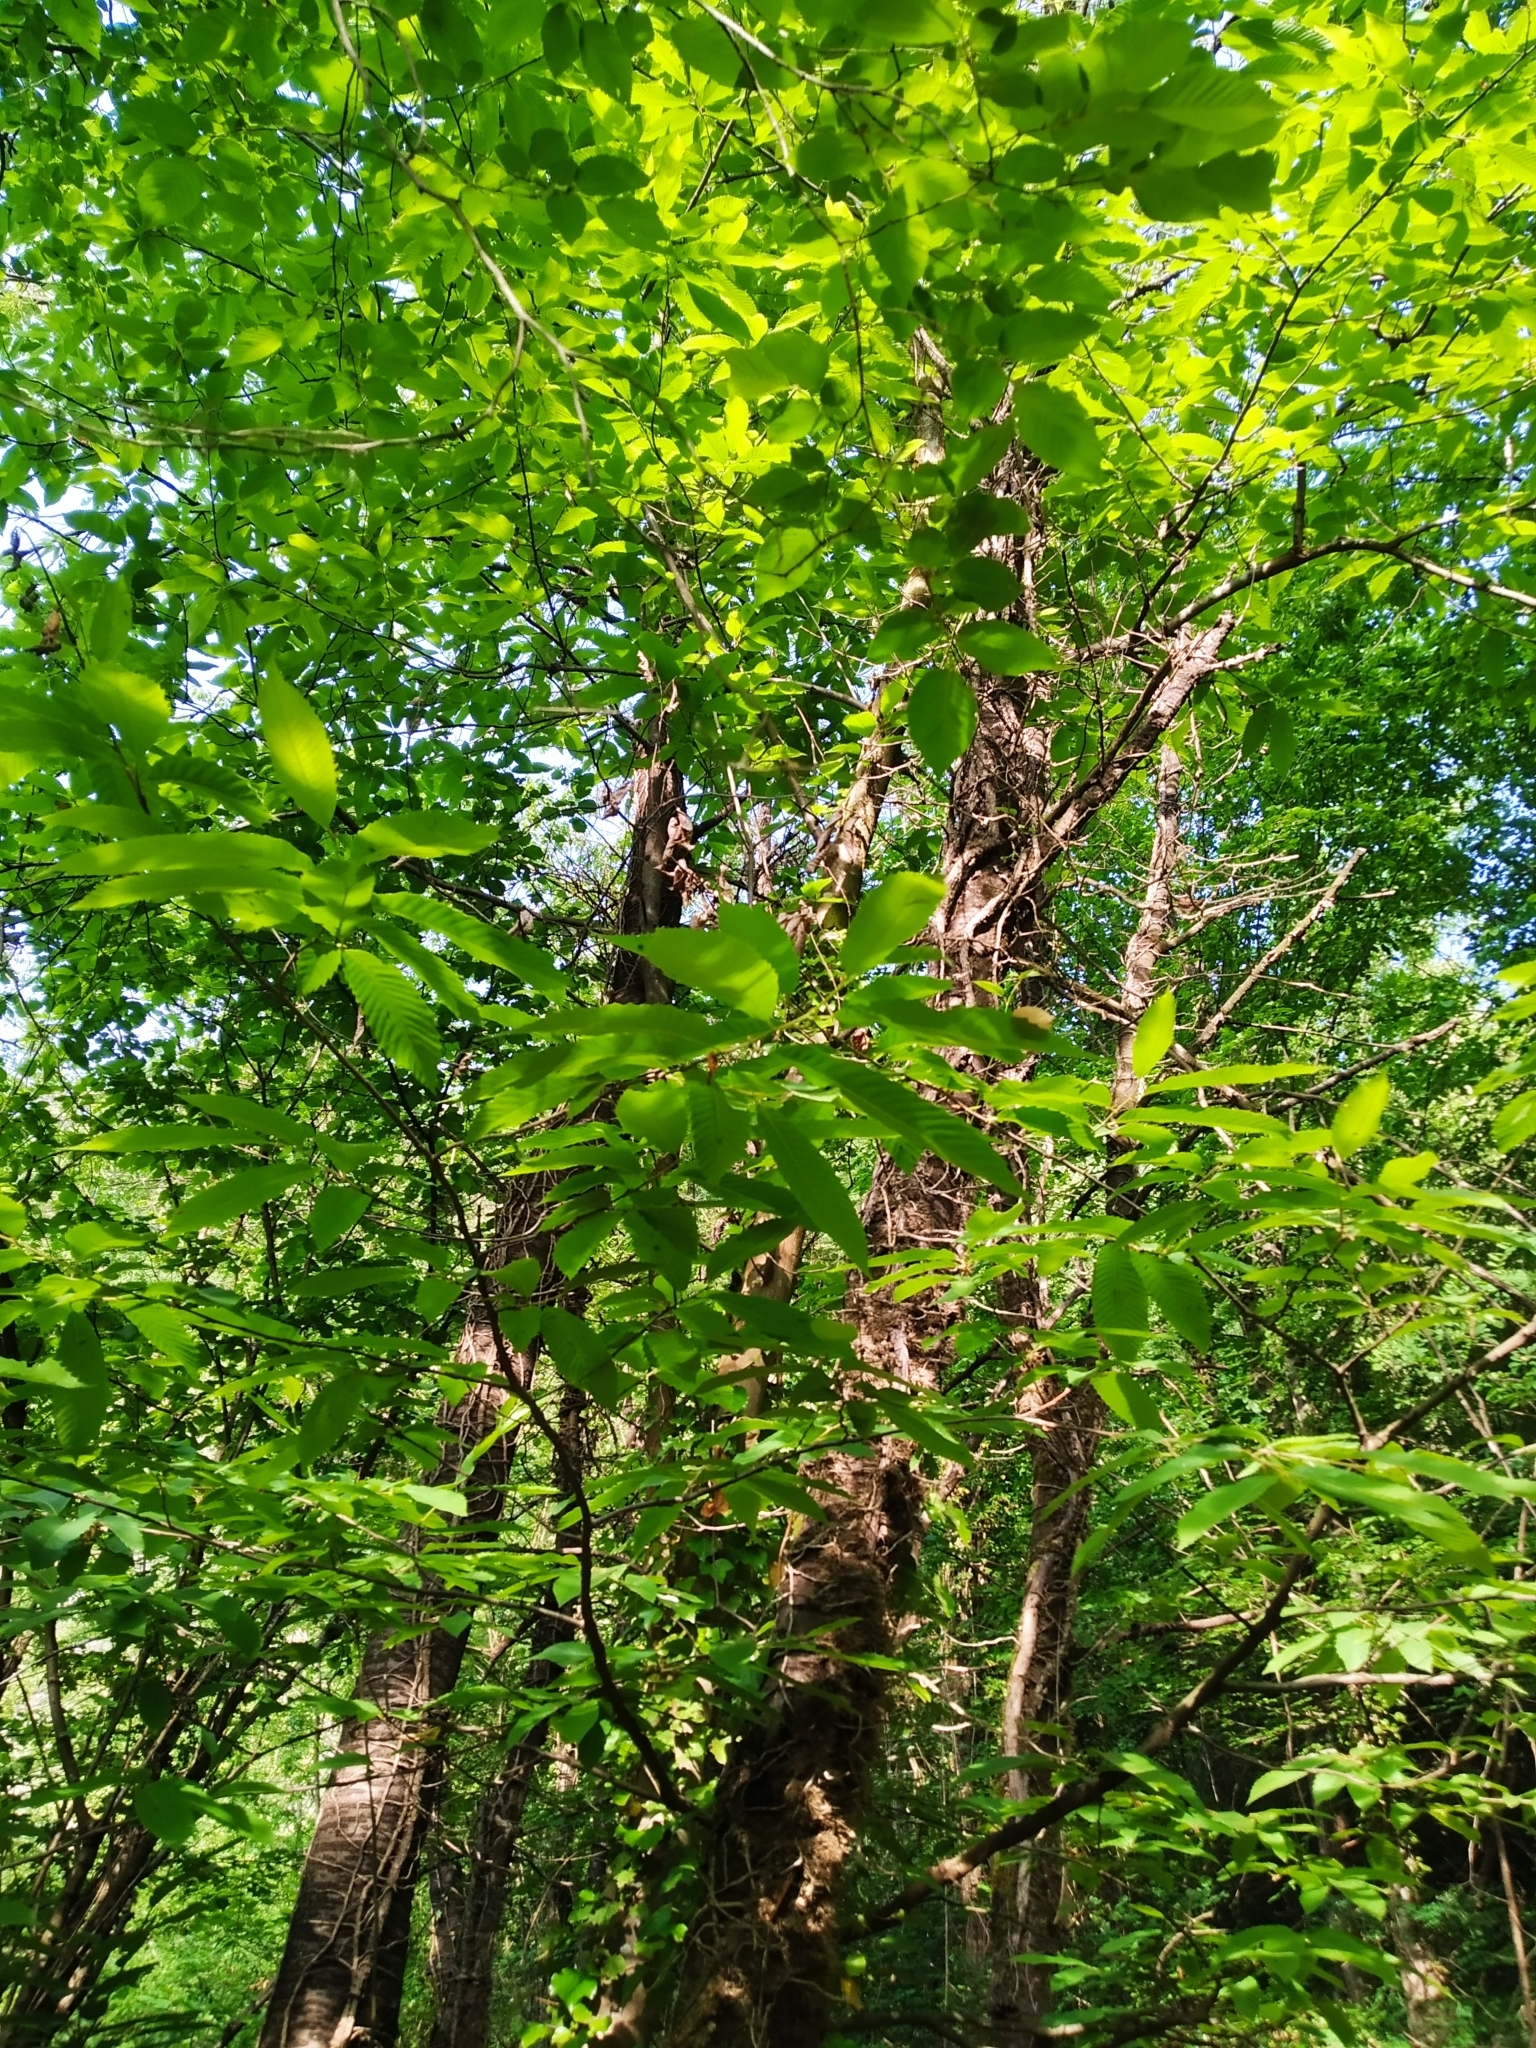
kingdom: Plantae
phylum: Tracheophyta
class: Magnoliopsida
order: Fagales
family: Fagaceae
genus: Castanea
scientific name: Castanea sativa
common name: Sweet chestnut
